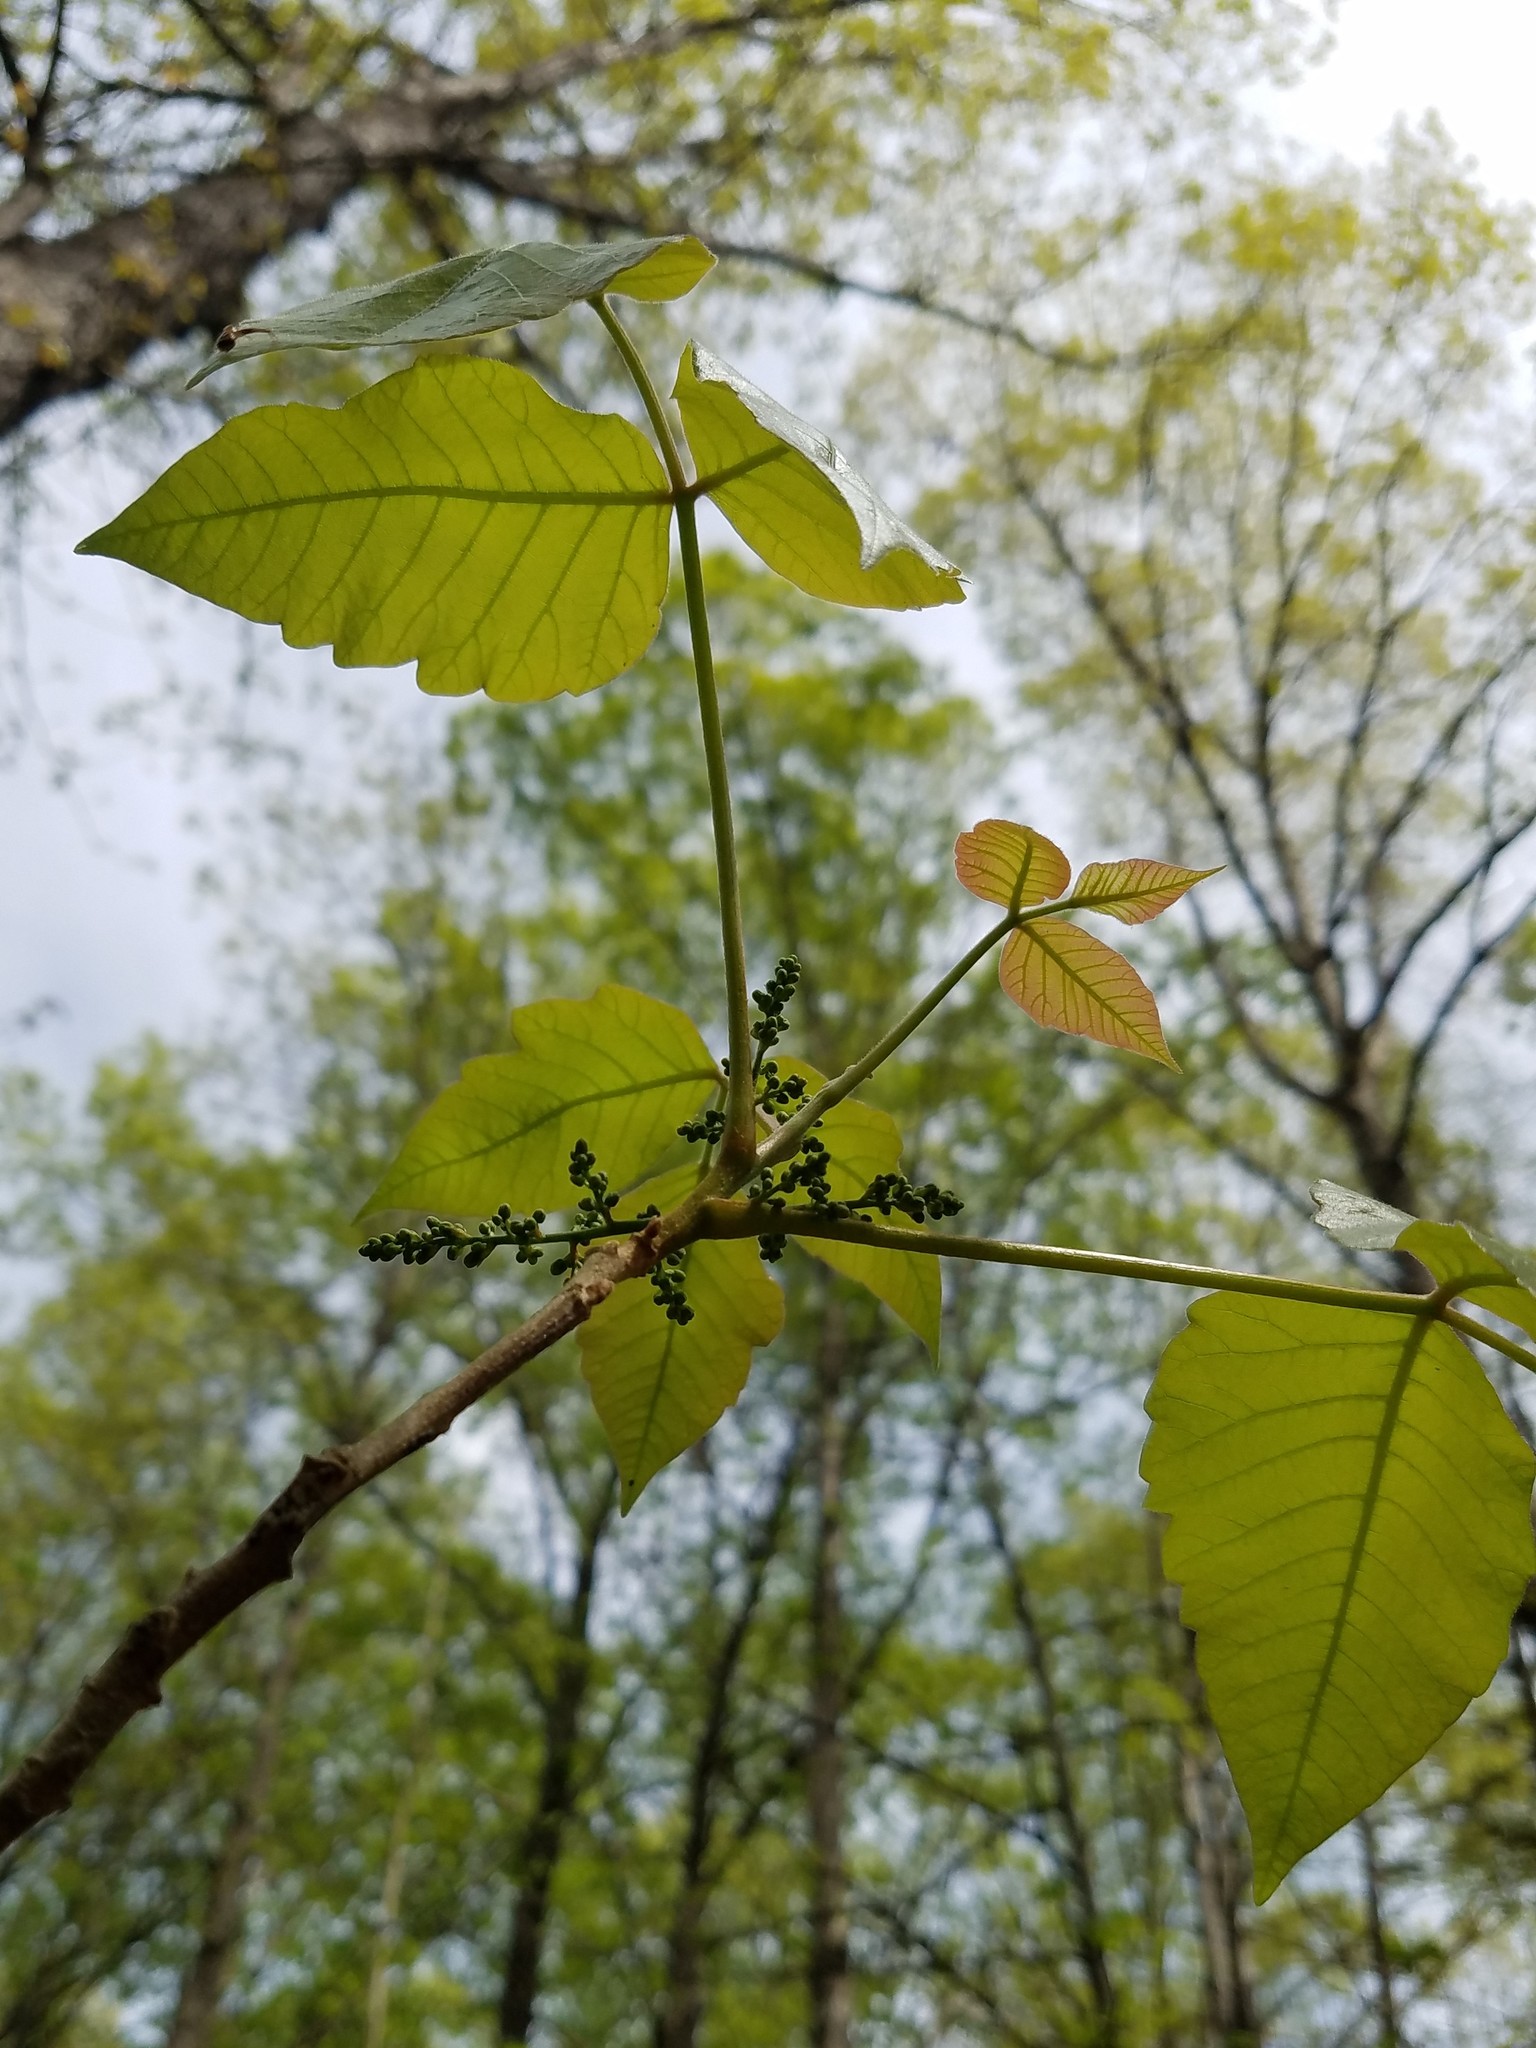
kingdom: Plantae
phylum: Tracheophyta
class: Magnoliopsida
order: Sapindales
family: Anacardiaceae
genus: Toxicodendron
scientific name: Toxicodendron radicans
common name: Poison ivy
